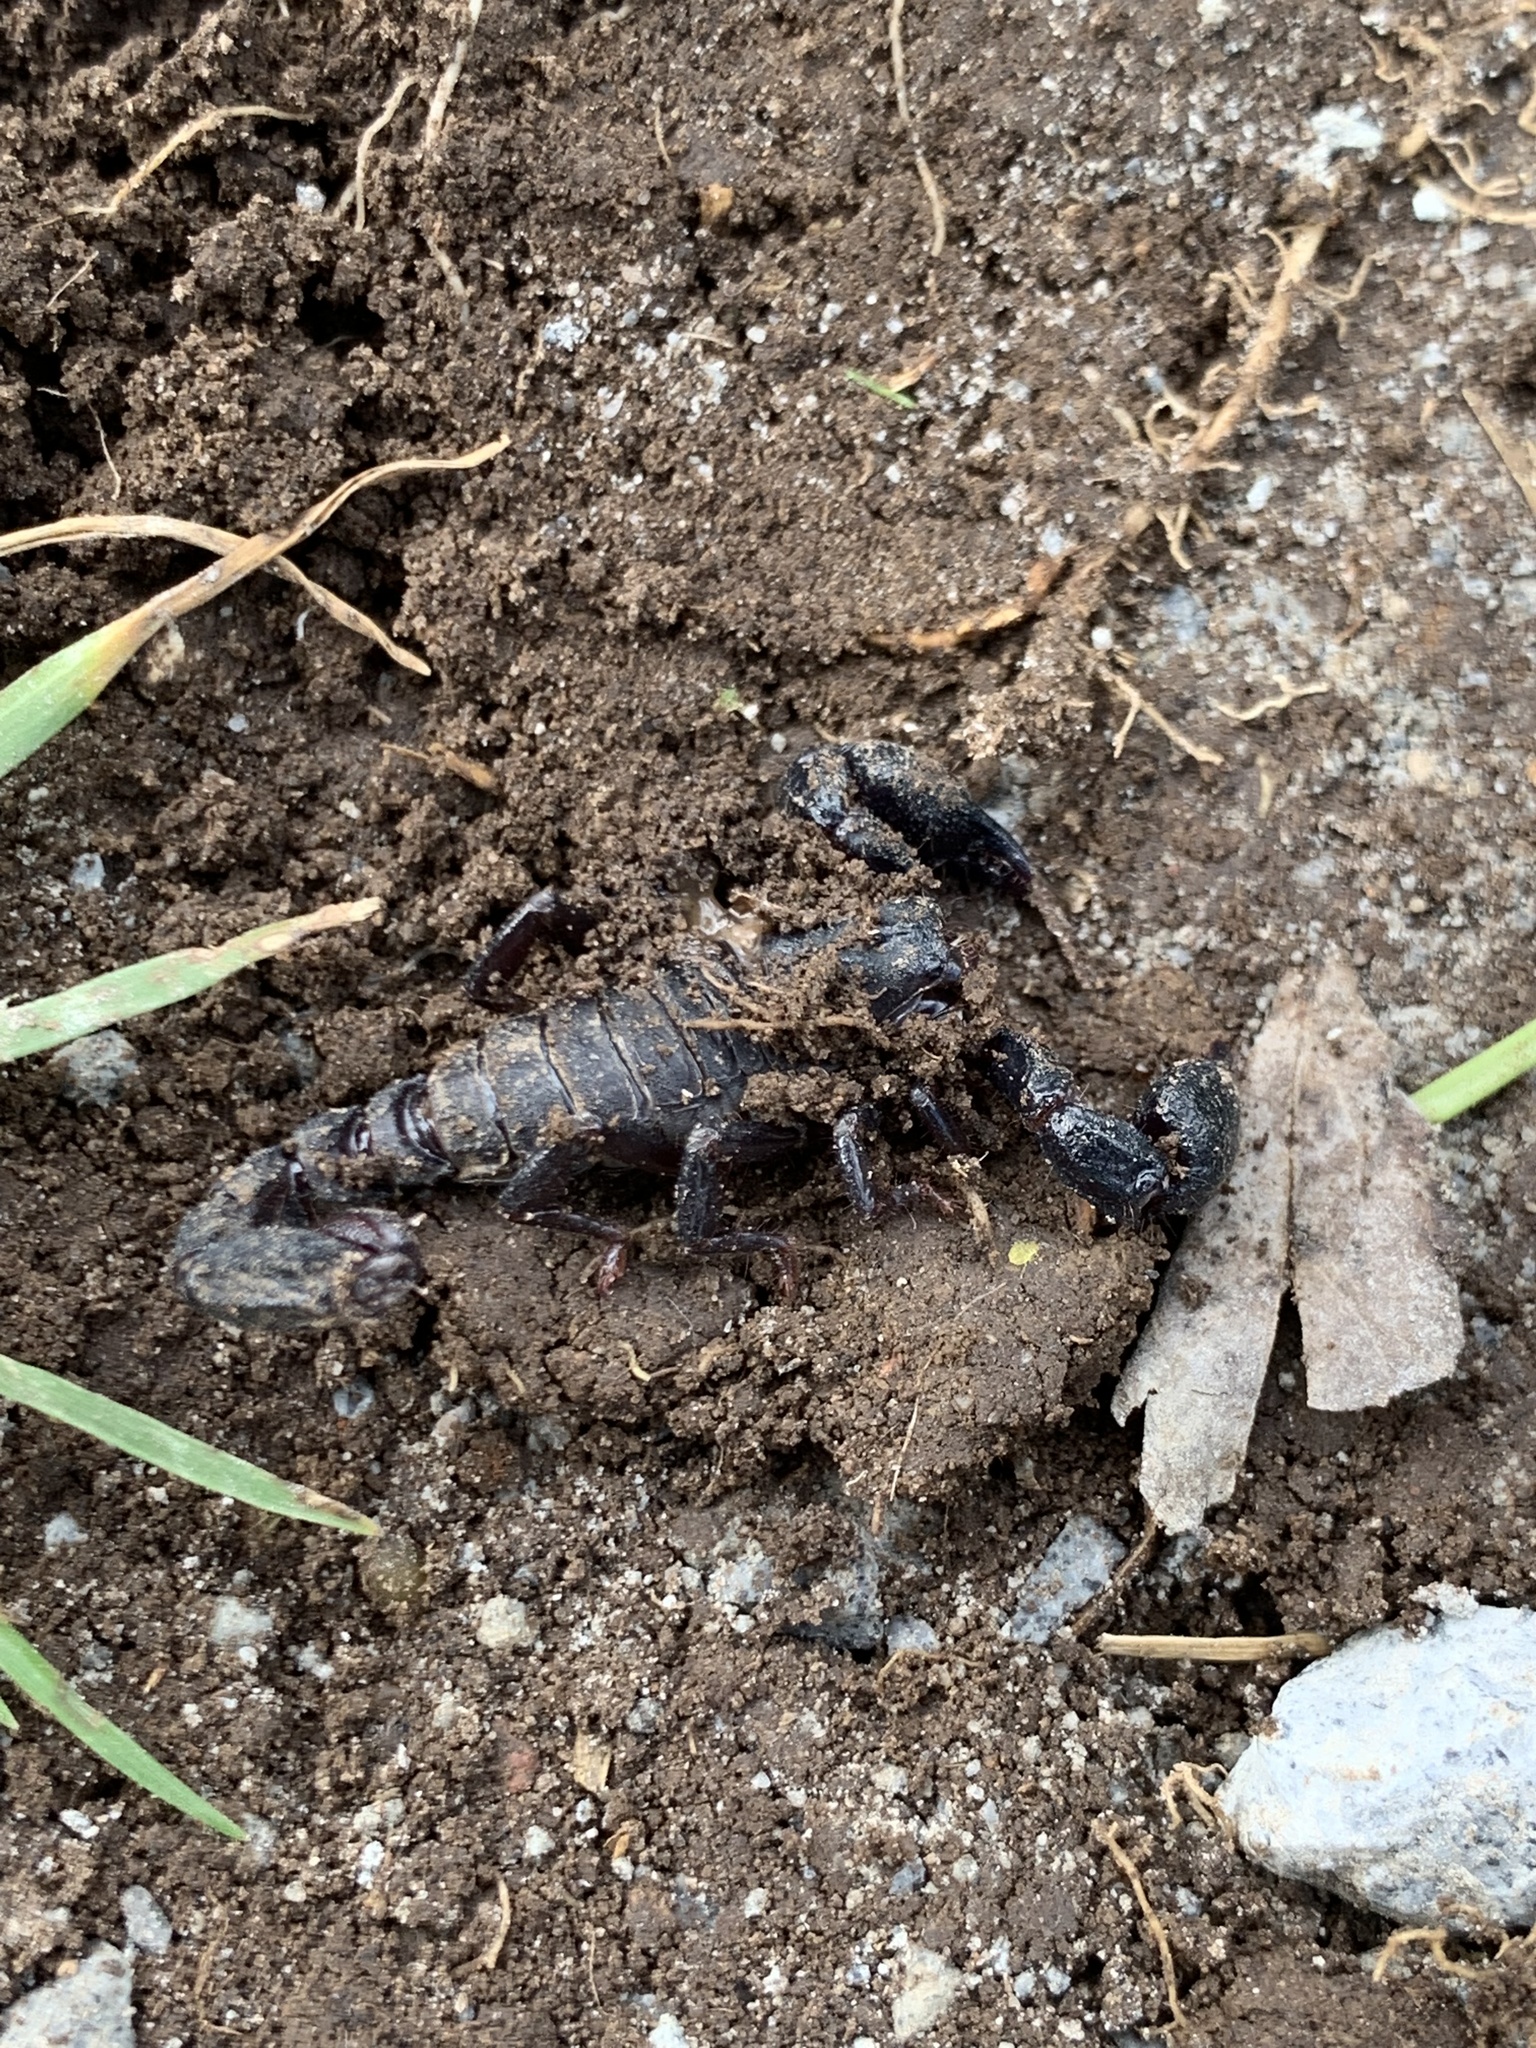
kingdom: Animalia
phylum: Arthropoda
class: Arachnida
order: Scorpiones
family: Chactidae
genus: Teuthraustes
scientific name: Teuthraustes atramentarius
